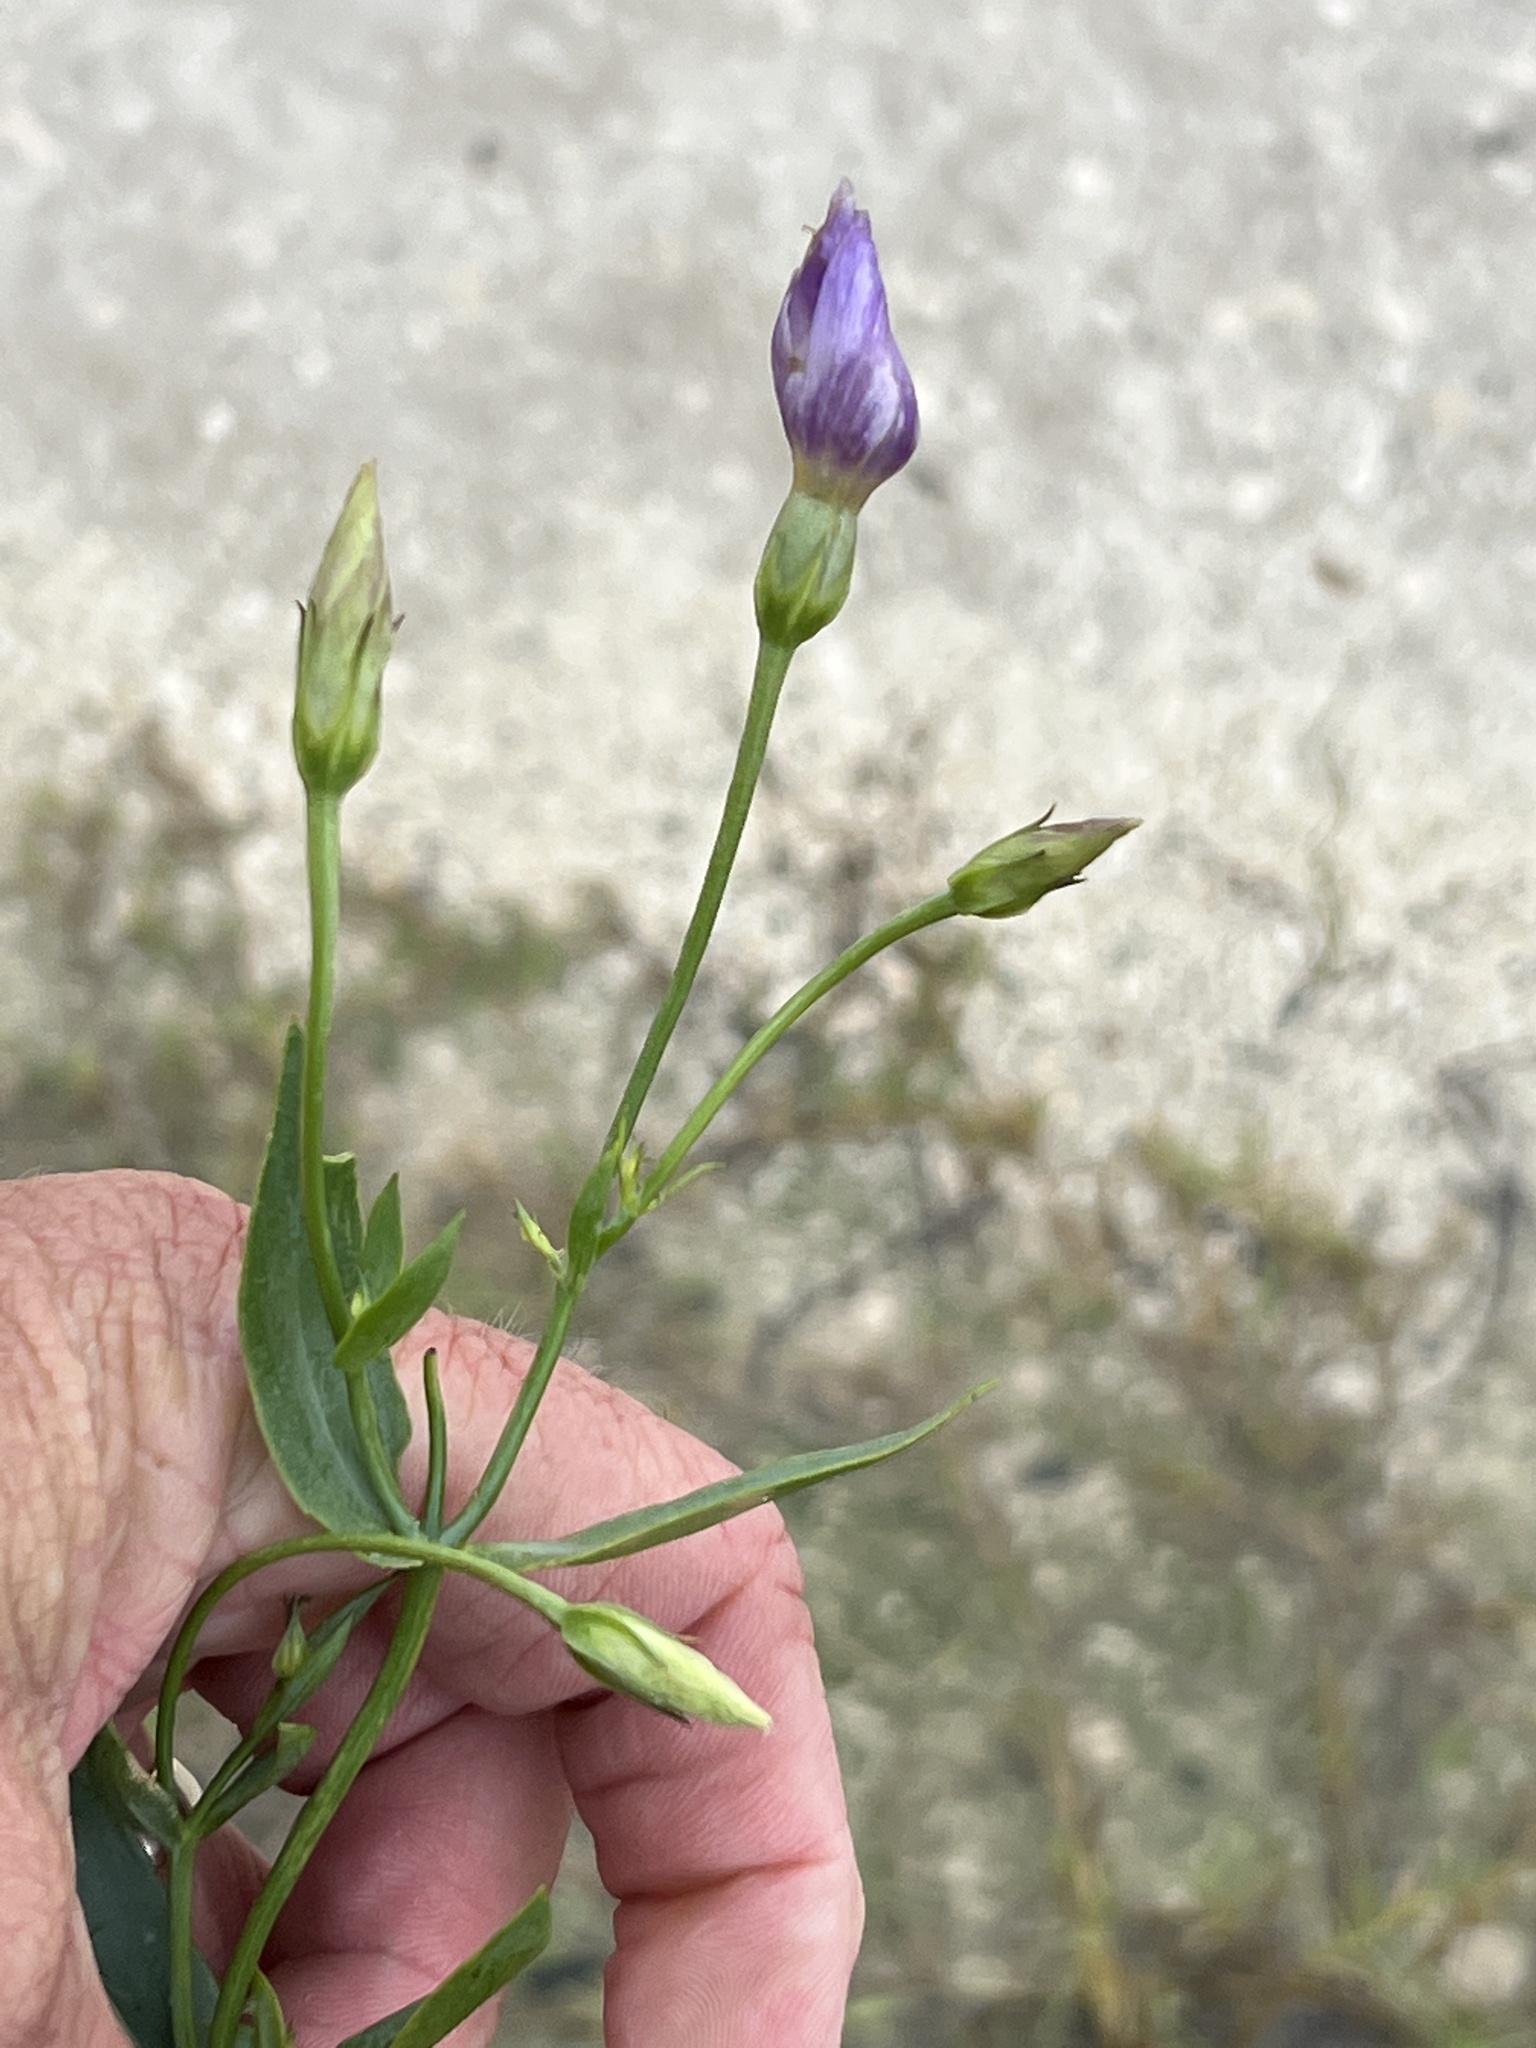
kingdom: Plantae
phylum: Tracheophyta
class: Magnoliopsida
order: Gentianales
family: Gentianaceae
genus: Eustoma
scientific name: Eustoma exaltatum
